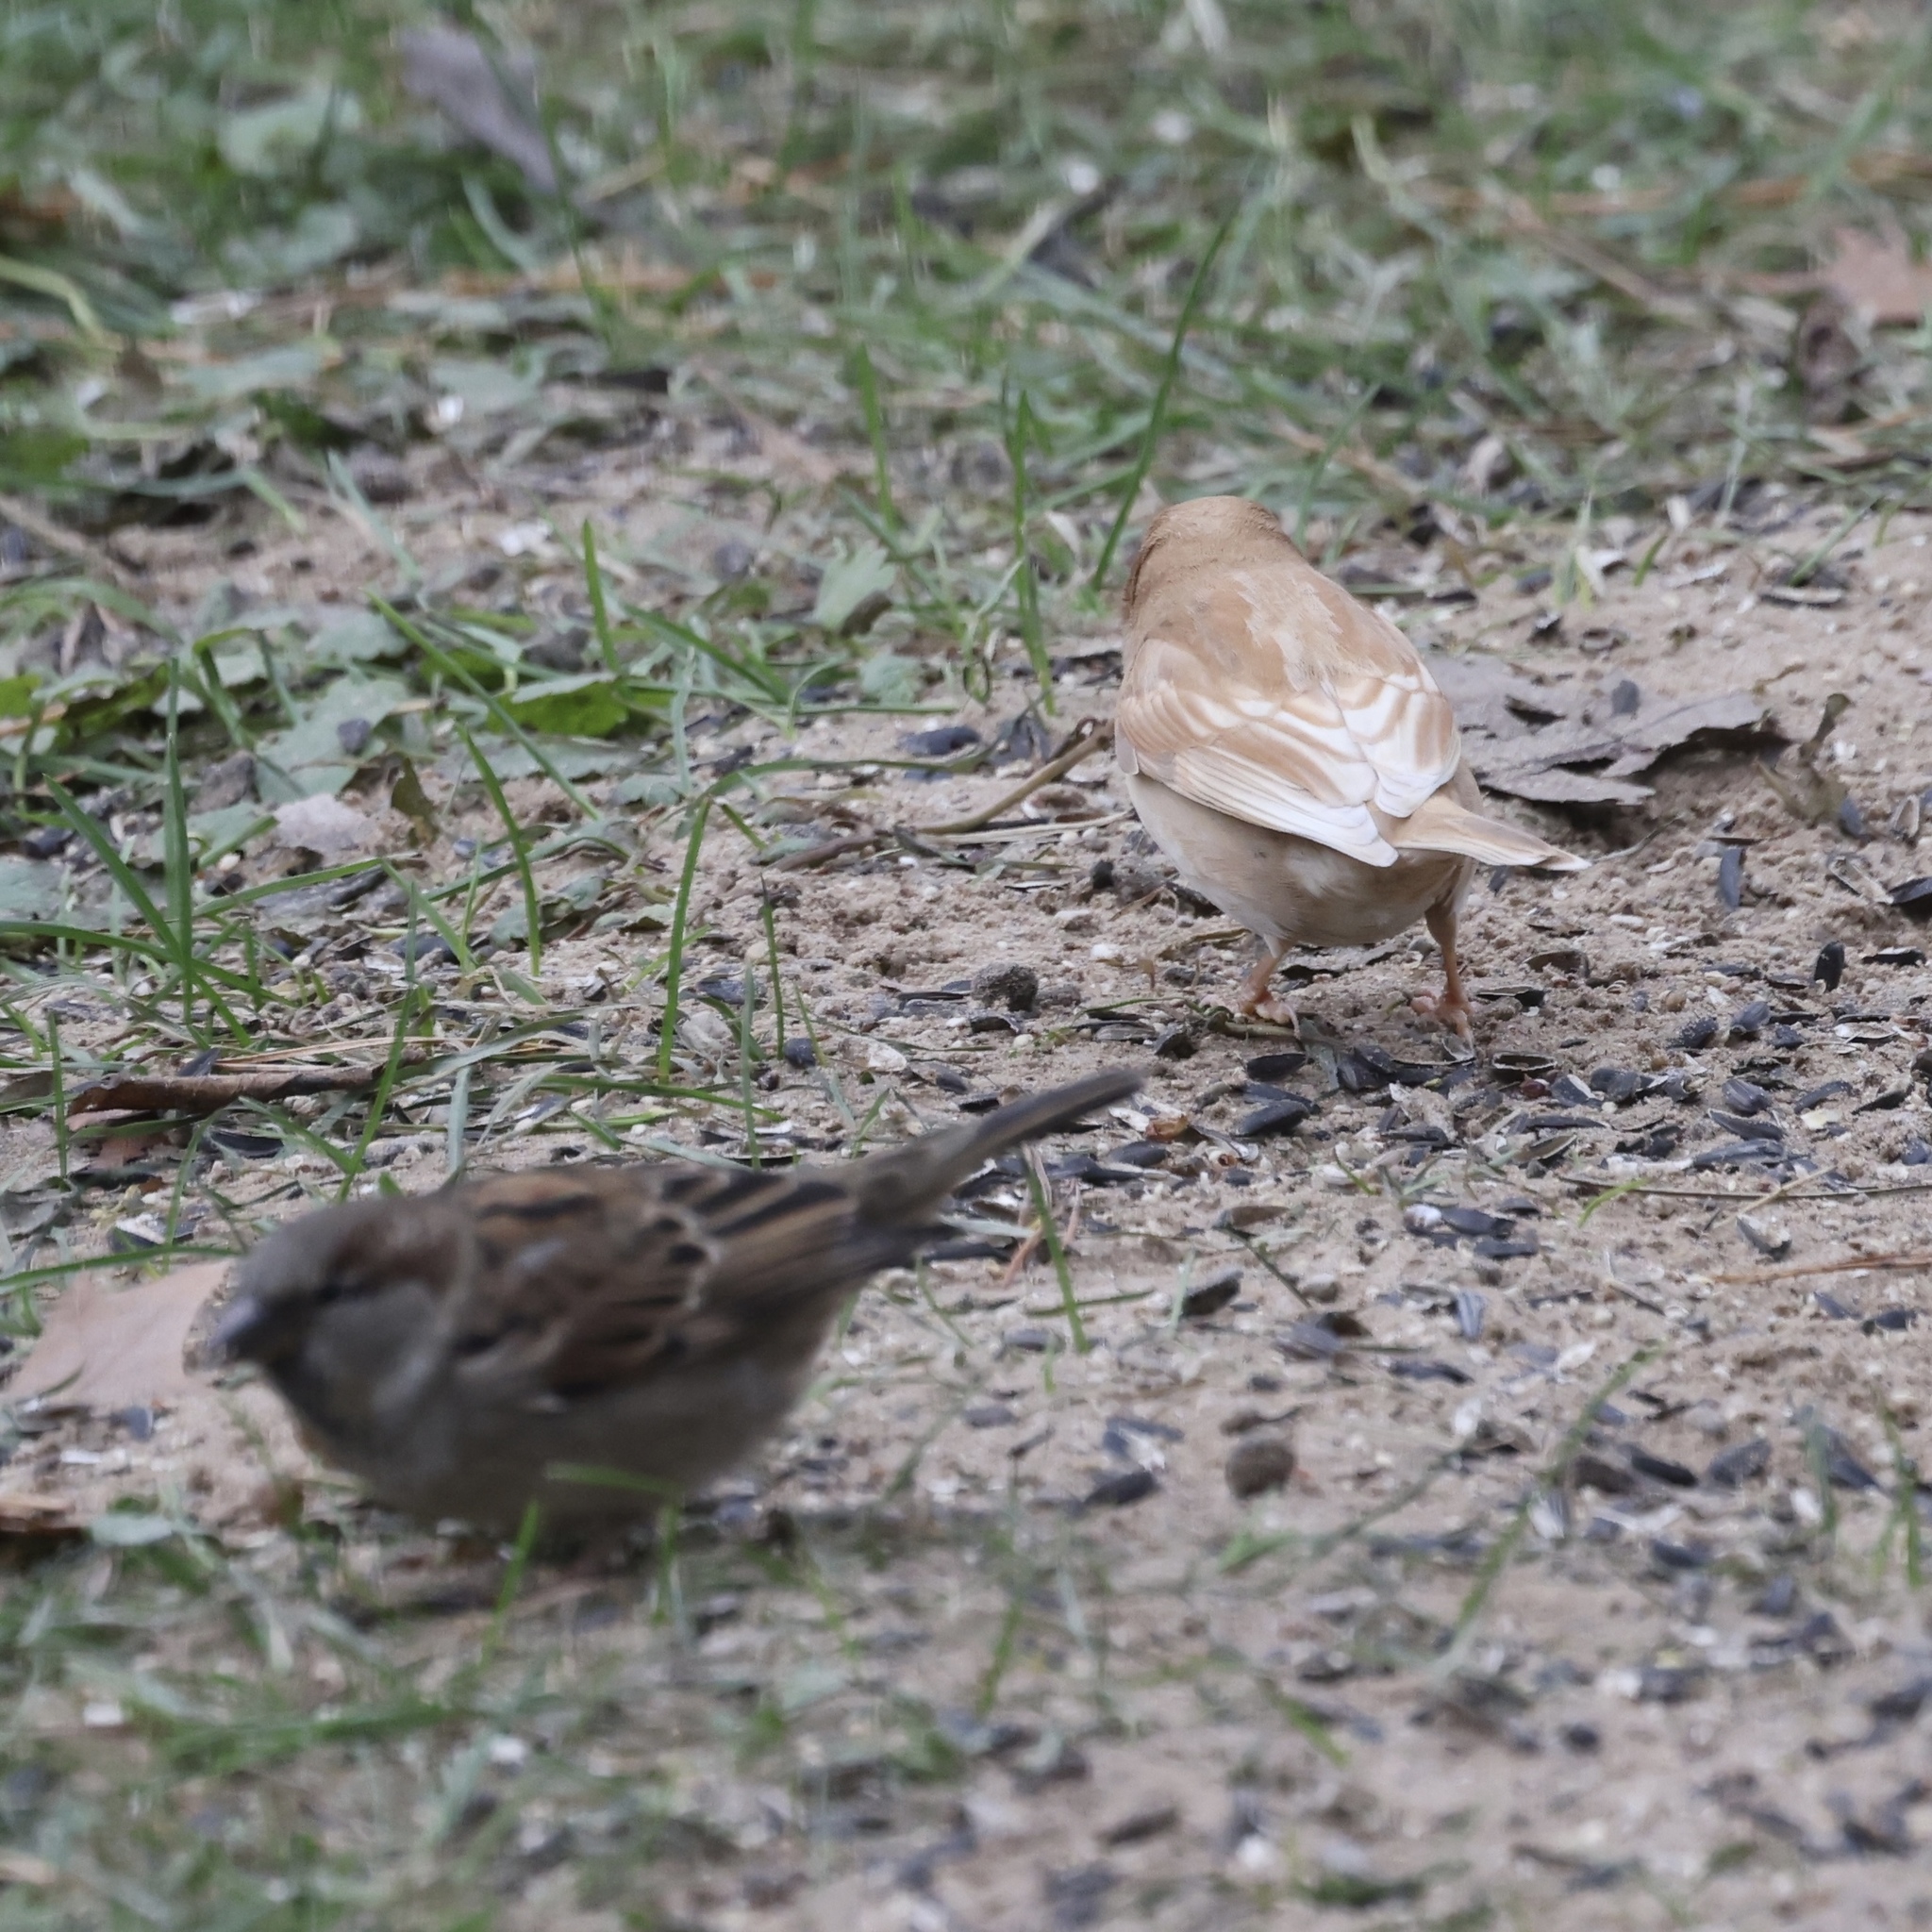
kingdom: Animalia
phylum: Chordata
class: Aves
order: Passeriformes
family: Passeridae
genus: Passer
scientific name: Passer domesticus
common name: House sparrow
